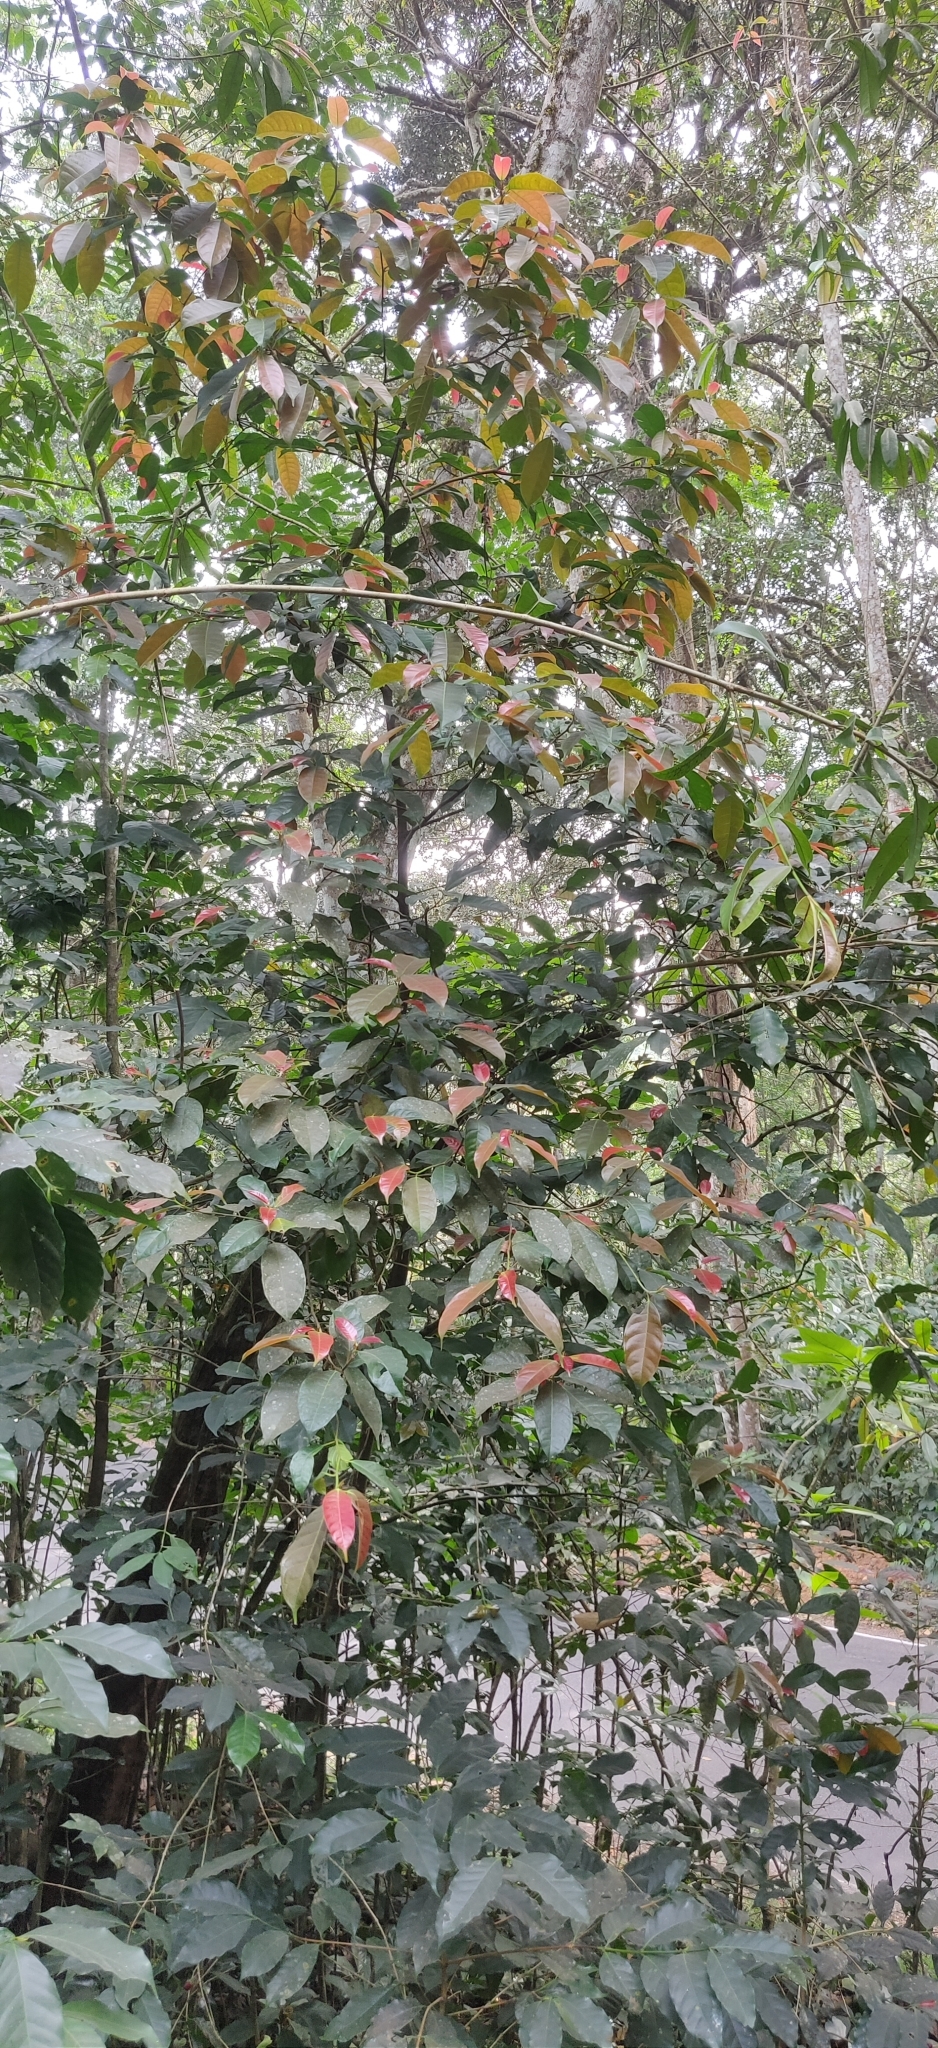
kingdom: Plantae
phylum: Tracheophyta
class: Magnoliopsida
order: Rosales
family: Moraceae
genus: Ficus
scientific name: Ficus nervosa
